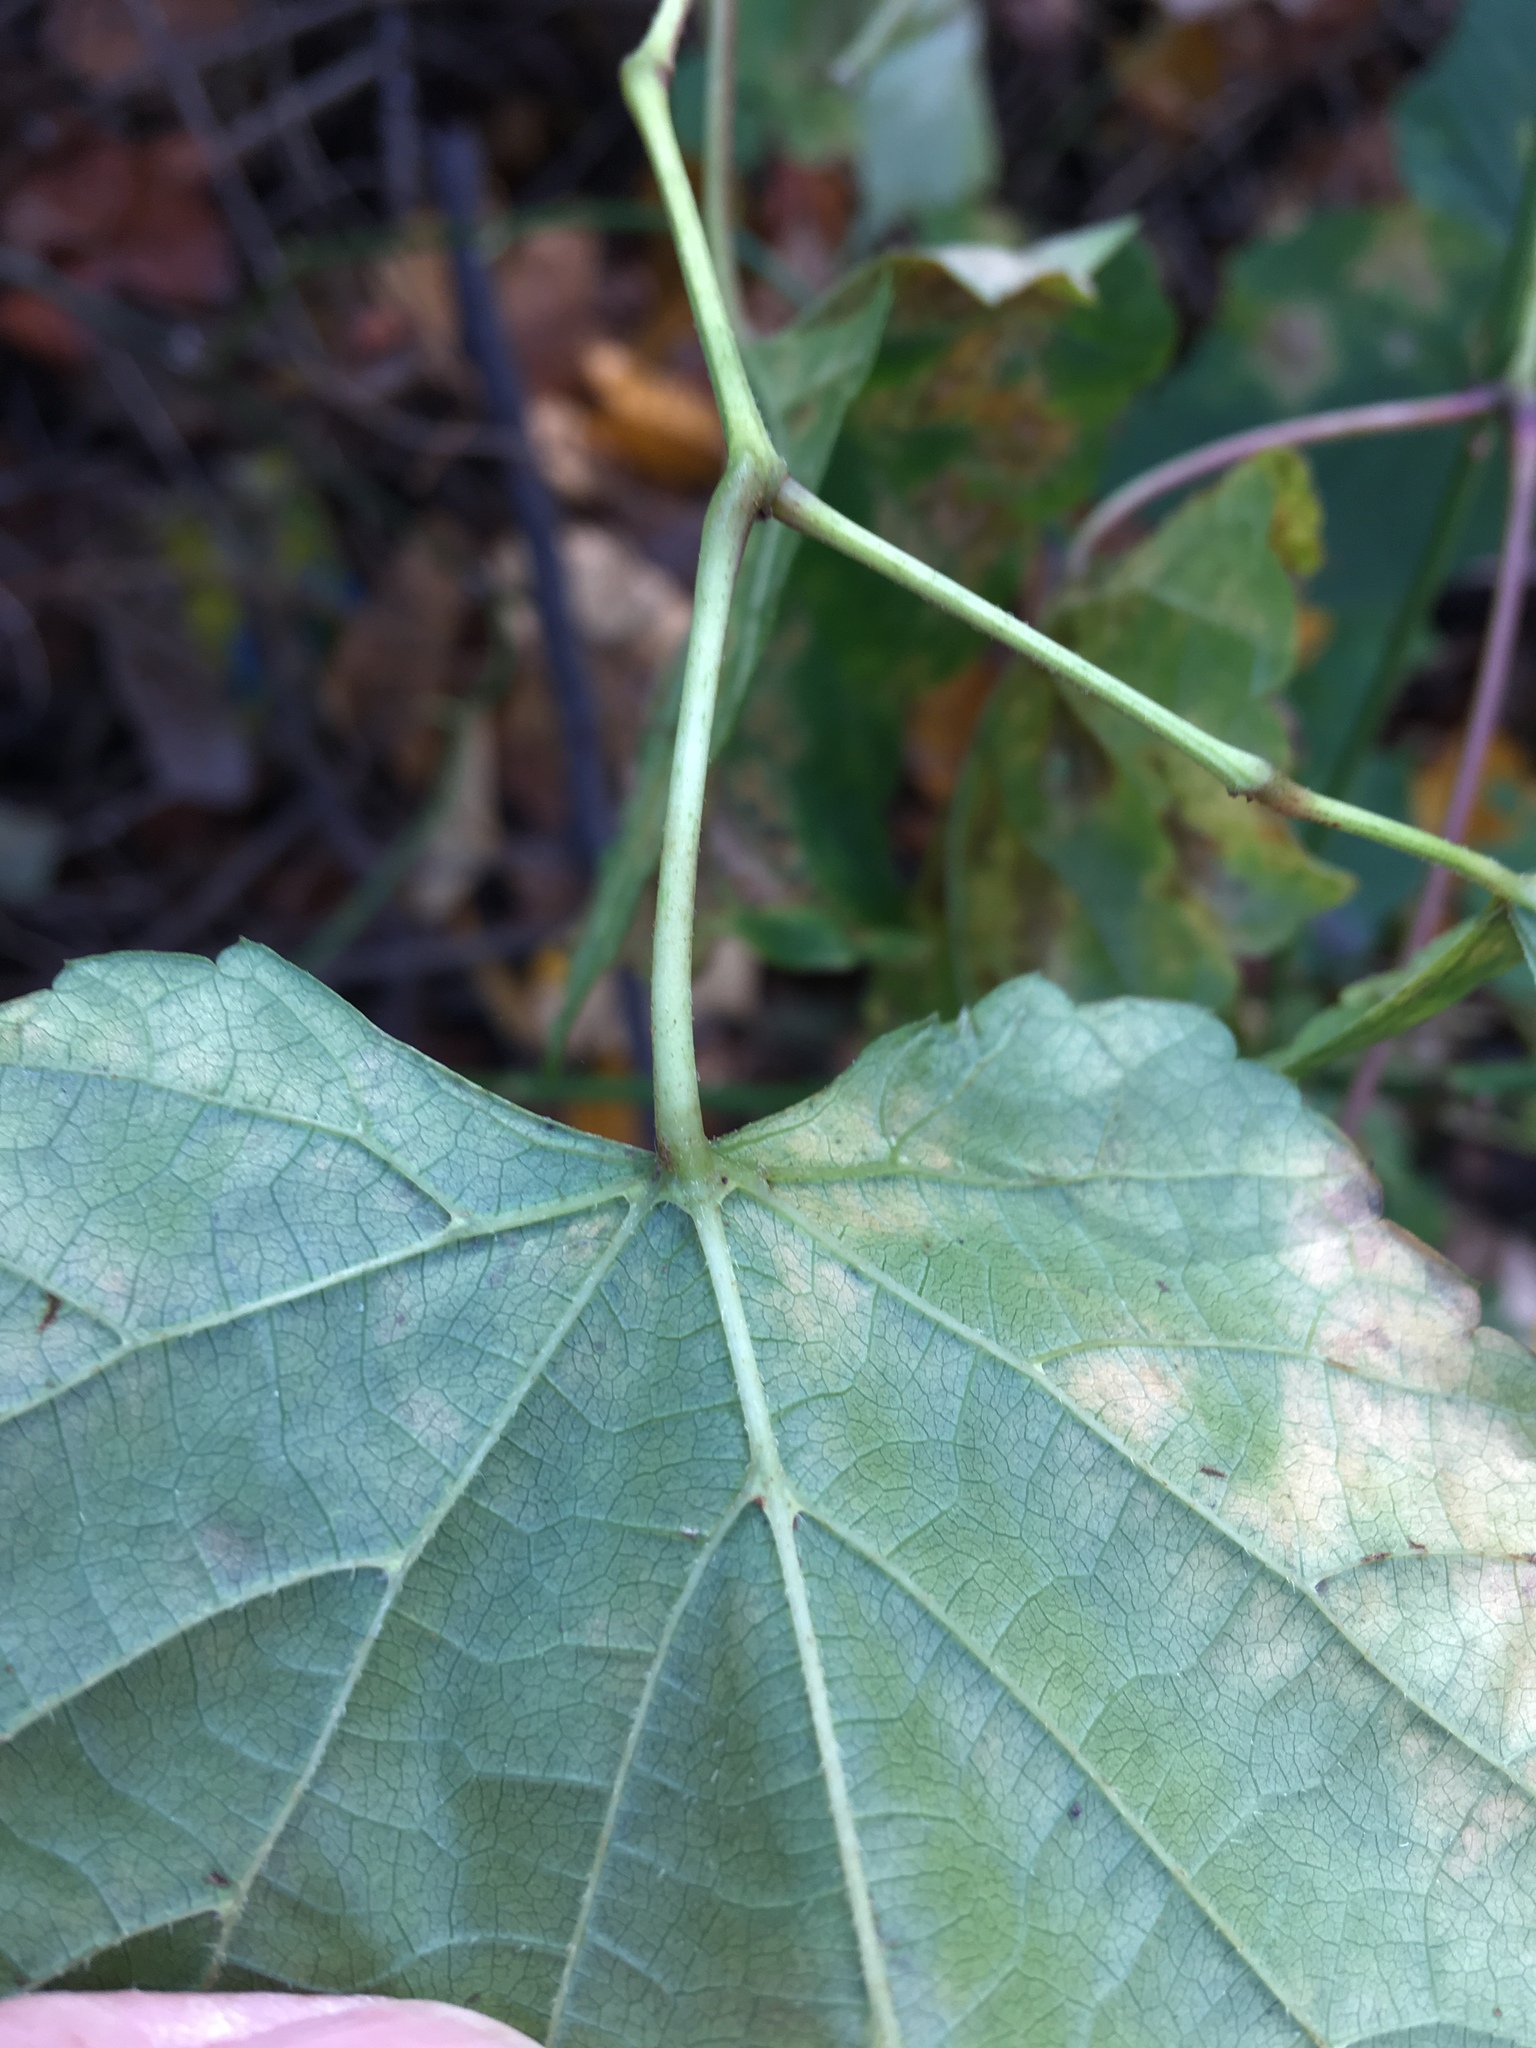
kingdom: Plantae
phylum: Tracheophyta
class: Magnoliopsida
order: Vitales
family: Vitaceae
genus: Ampelopsis
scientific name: Ampelopsis glandulosa
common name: Amur peppervine
